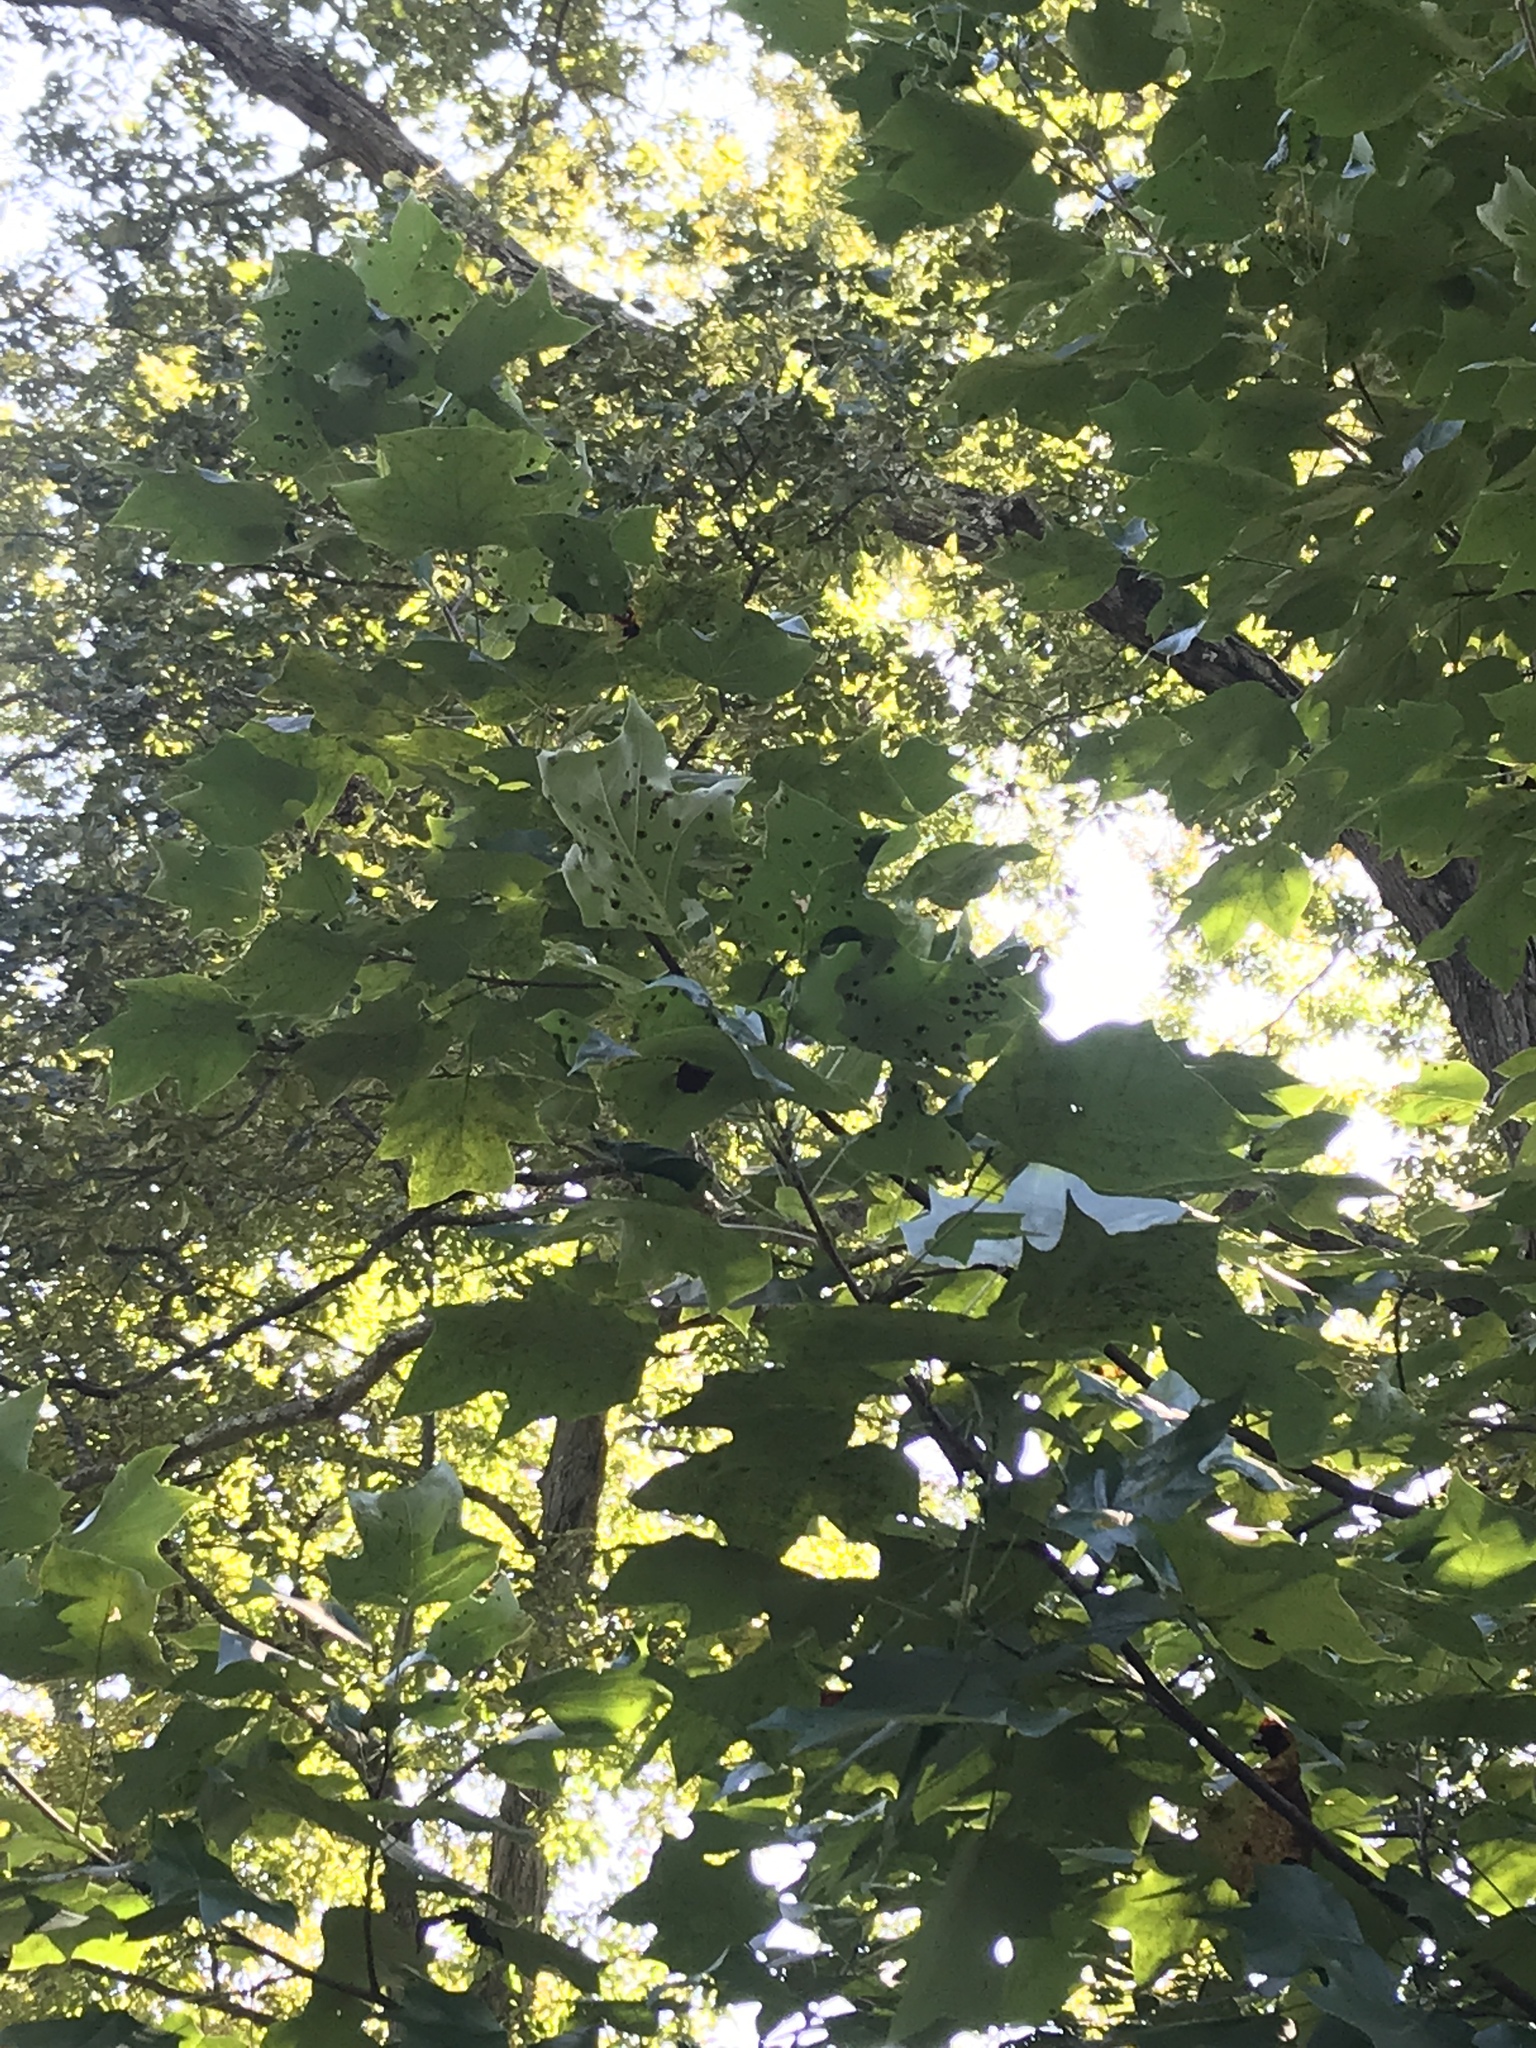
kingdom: Plantae
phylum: Tracheophyta
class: Magnoliopsida
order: Magnoliales
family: Magnoliaceae
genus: Liriodendron
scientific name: Liriodendron tulipifera
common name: Tulip tree
